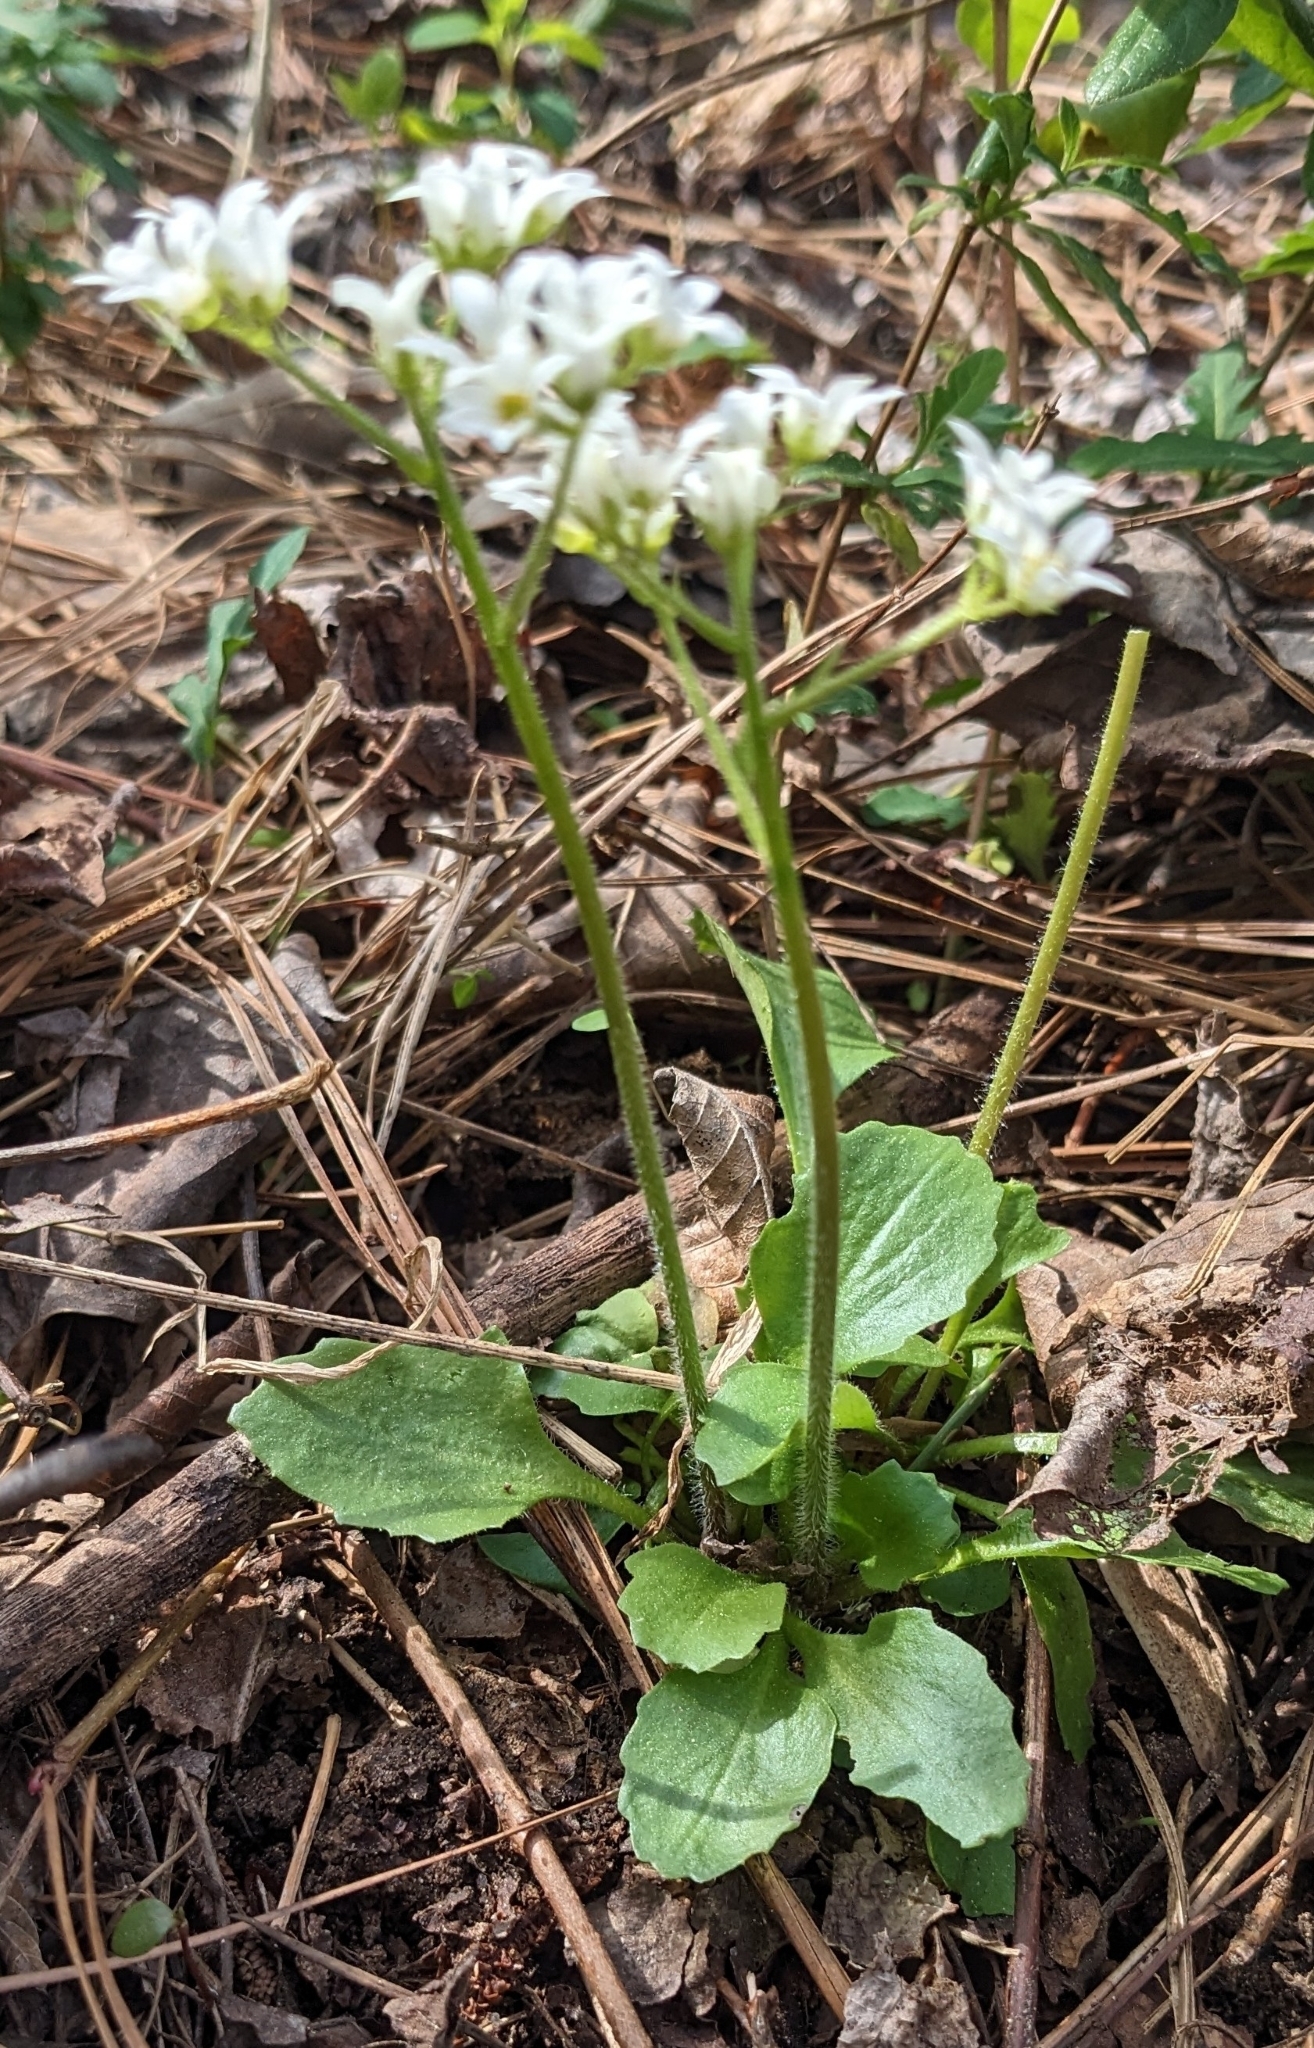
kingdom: Plantae
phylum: Tracheophyta
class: Magnoliopsida
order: Saxifragales
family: Saxifragaceae
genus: Micranthes
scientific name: Micranthes virginiensis
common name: Early saxifrage
